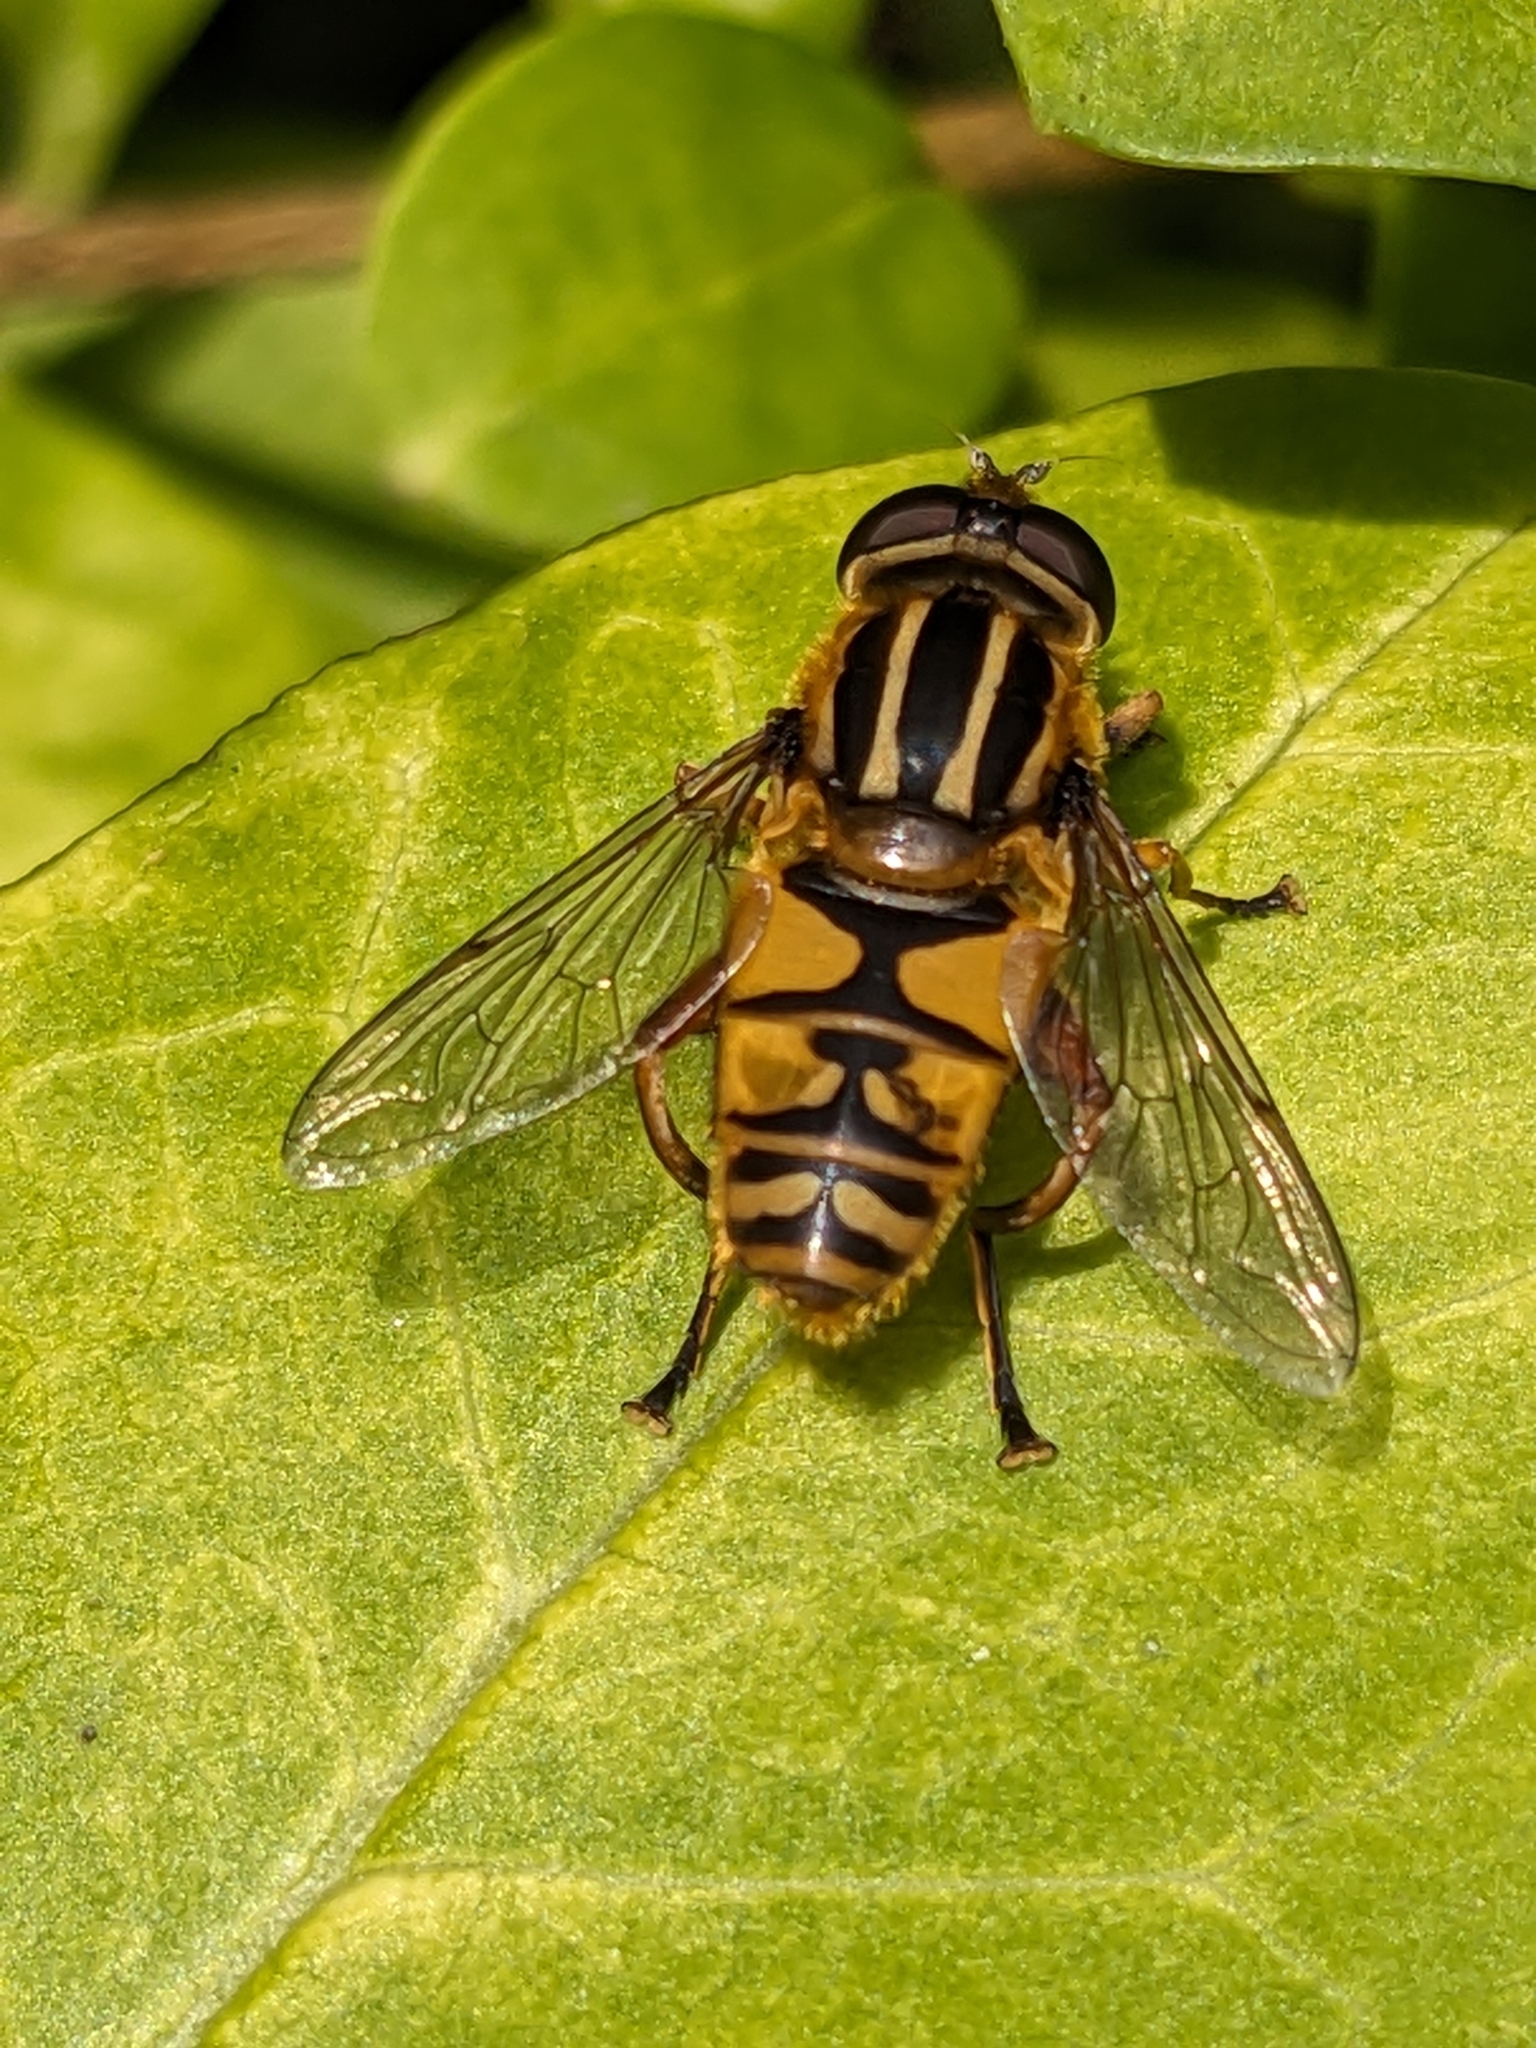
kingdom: Animalia
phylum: Arthropoda
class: Insecta
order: Diptera
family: Syrphidae
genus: Helophilus
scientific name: Helophilus pendulus
